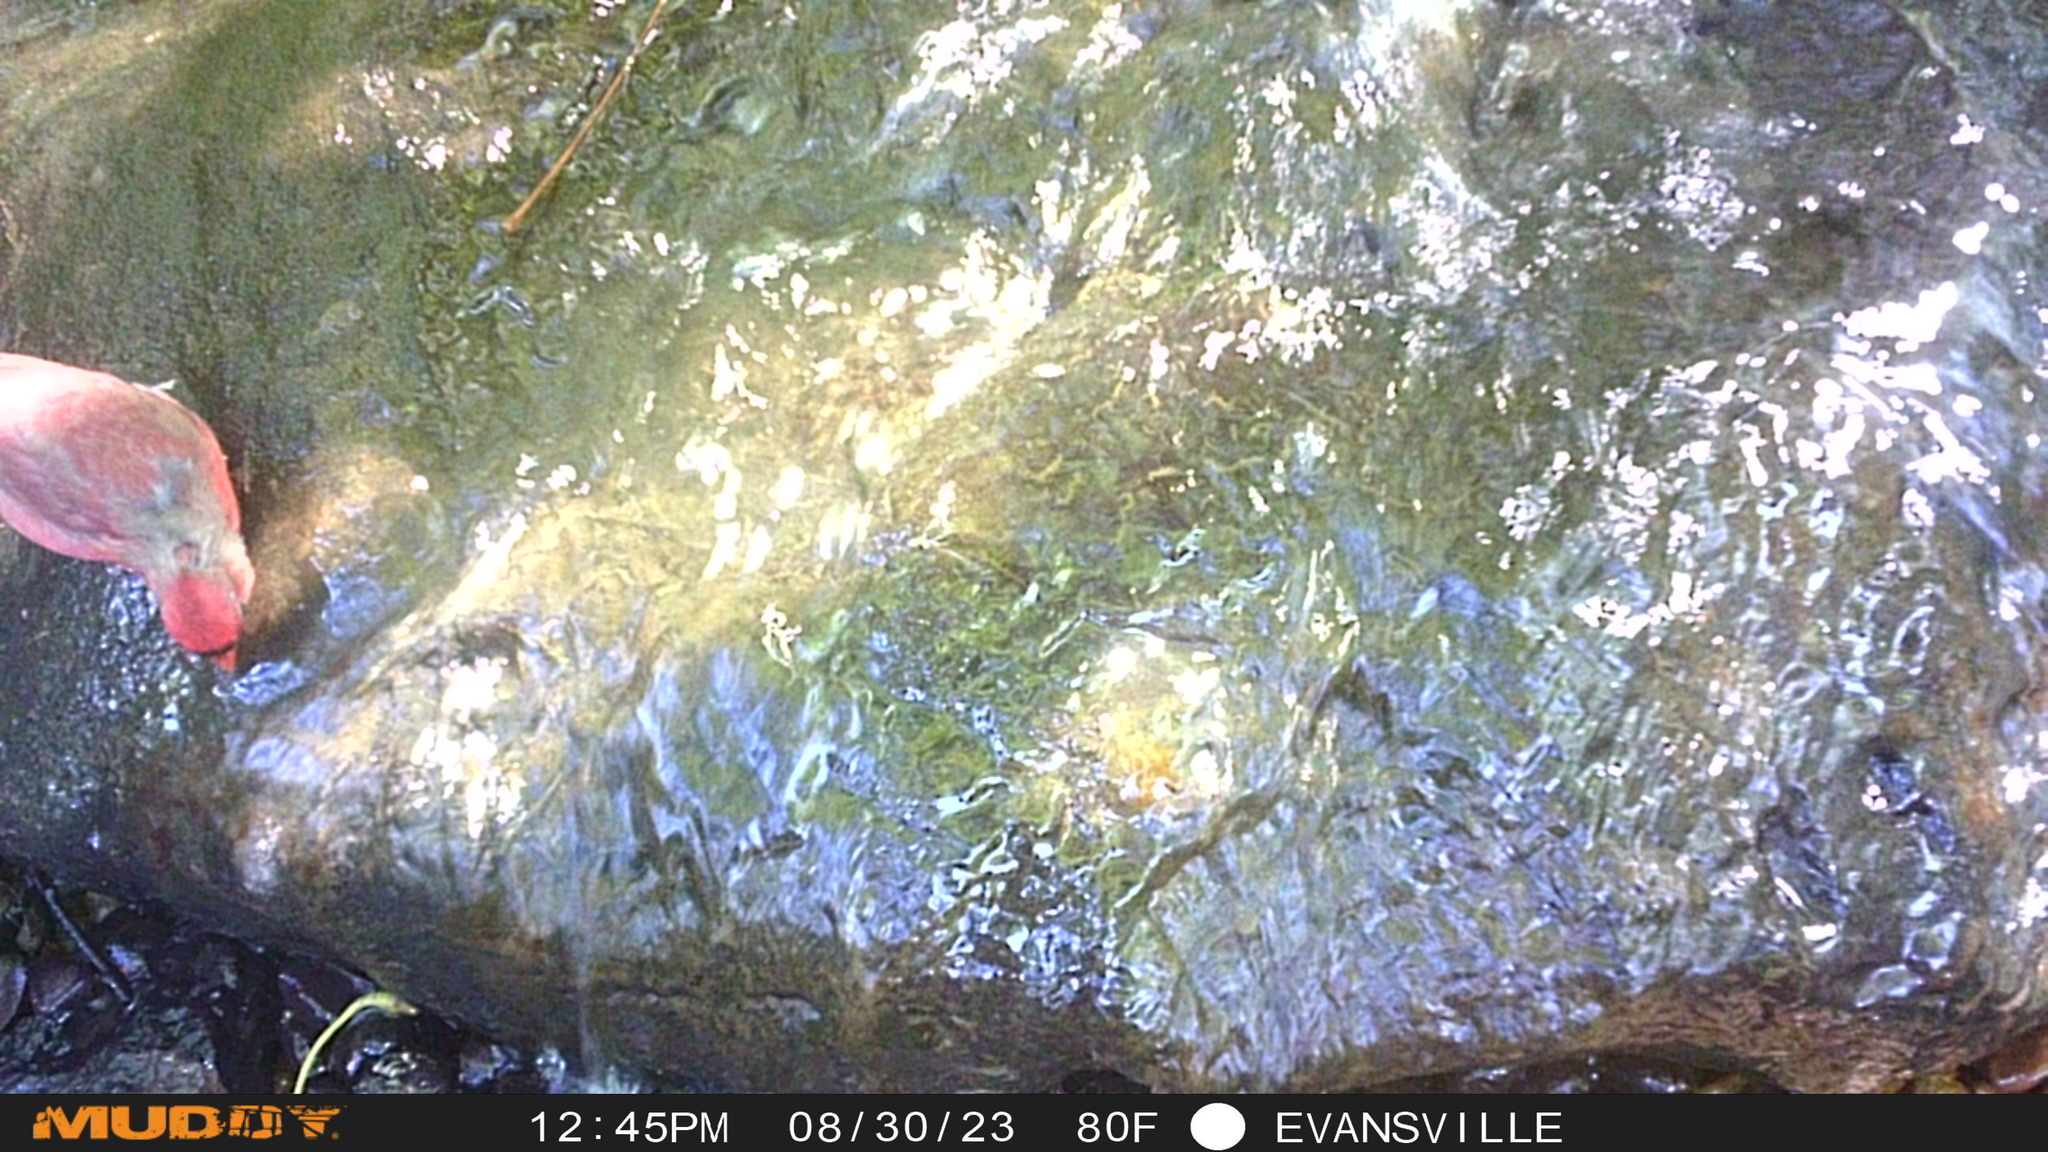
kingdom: Animalia
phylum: Chordata
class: Aves
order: Passeriformes
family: Cardinalidae
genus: Cardinalis
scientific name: Cardinalis cardinalis
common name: Northern cardinal
